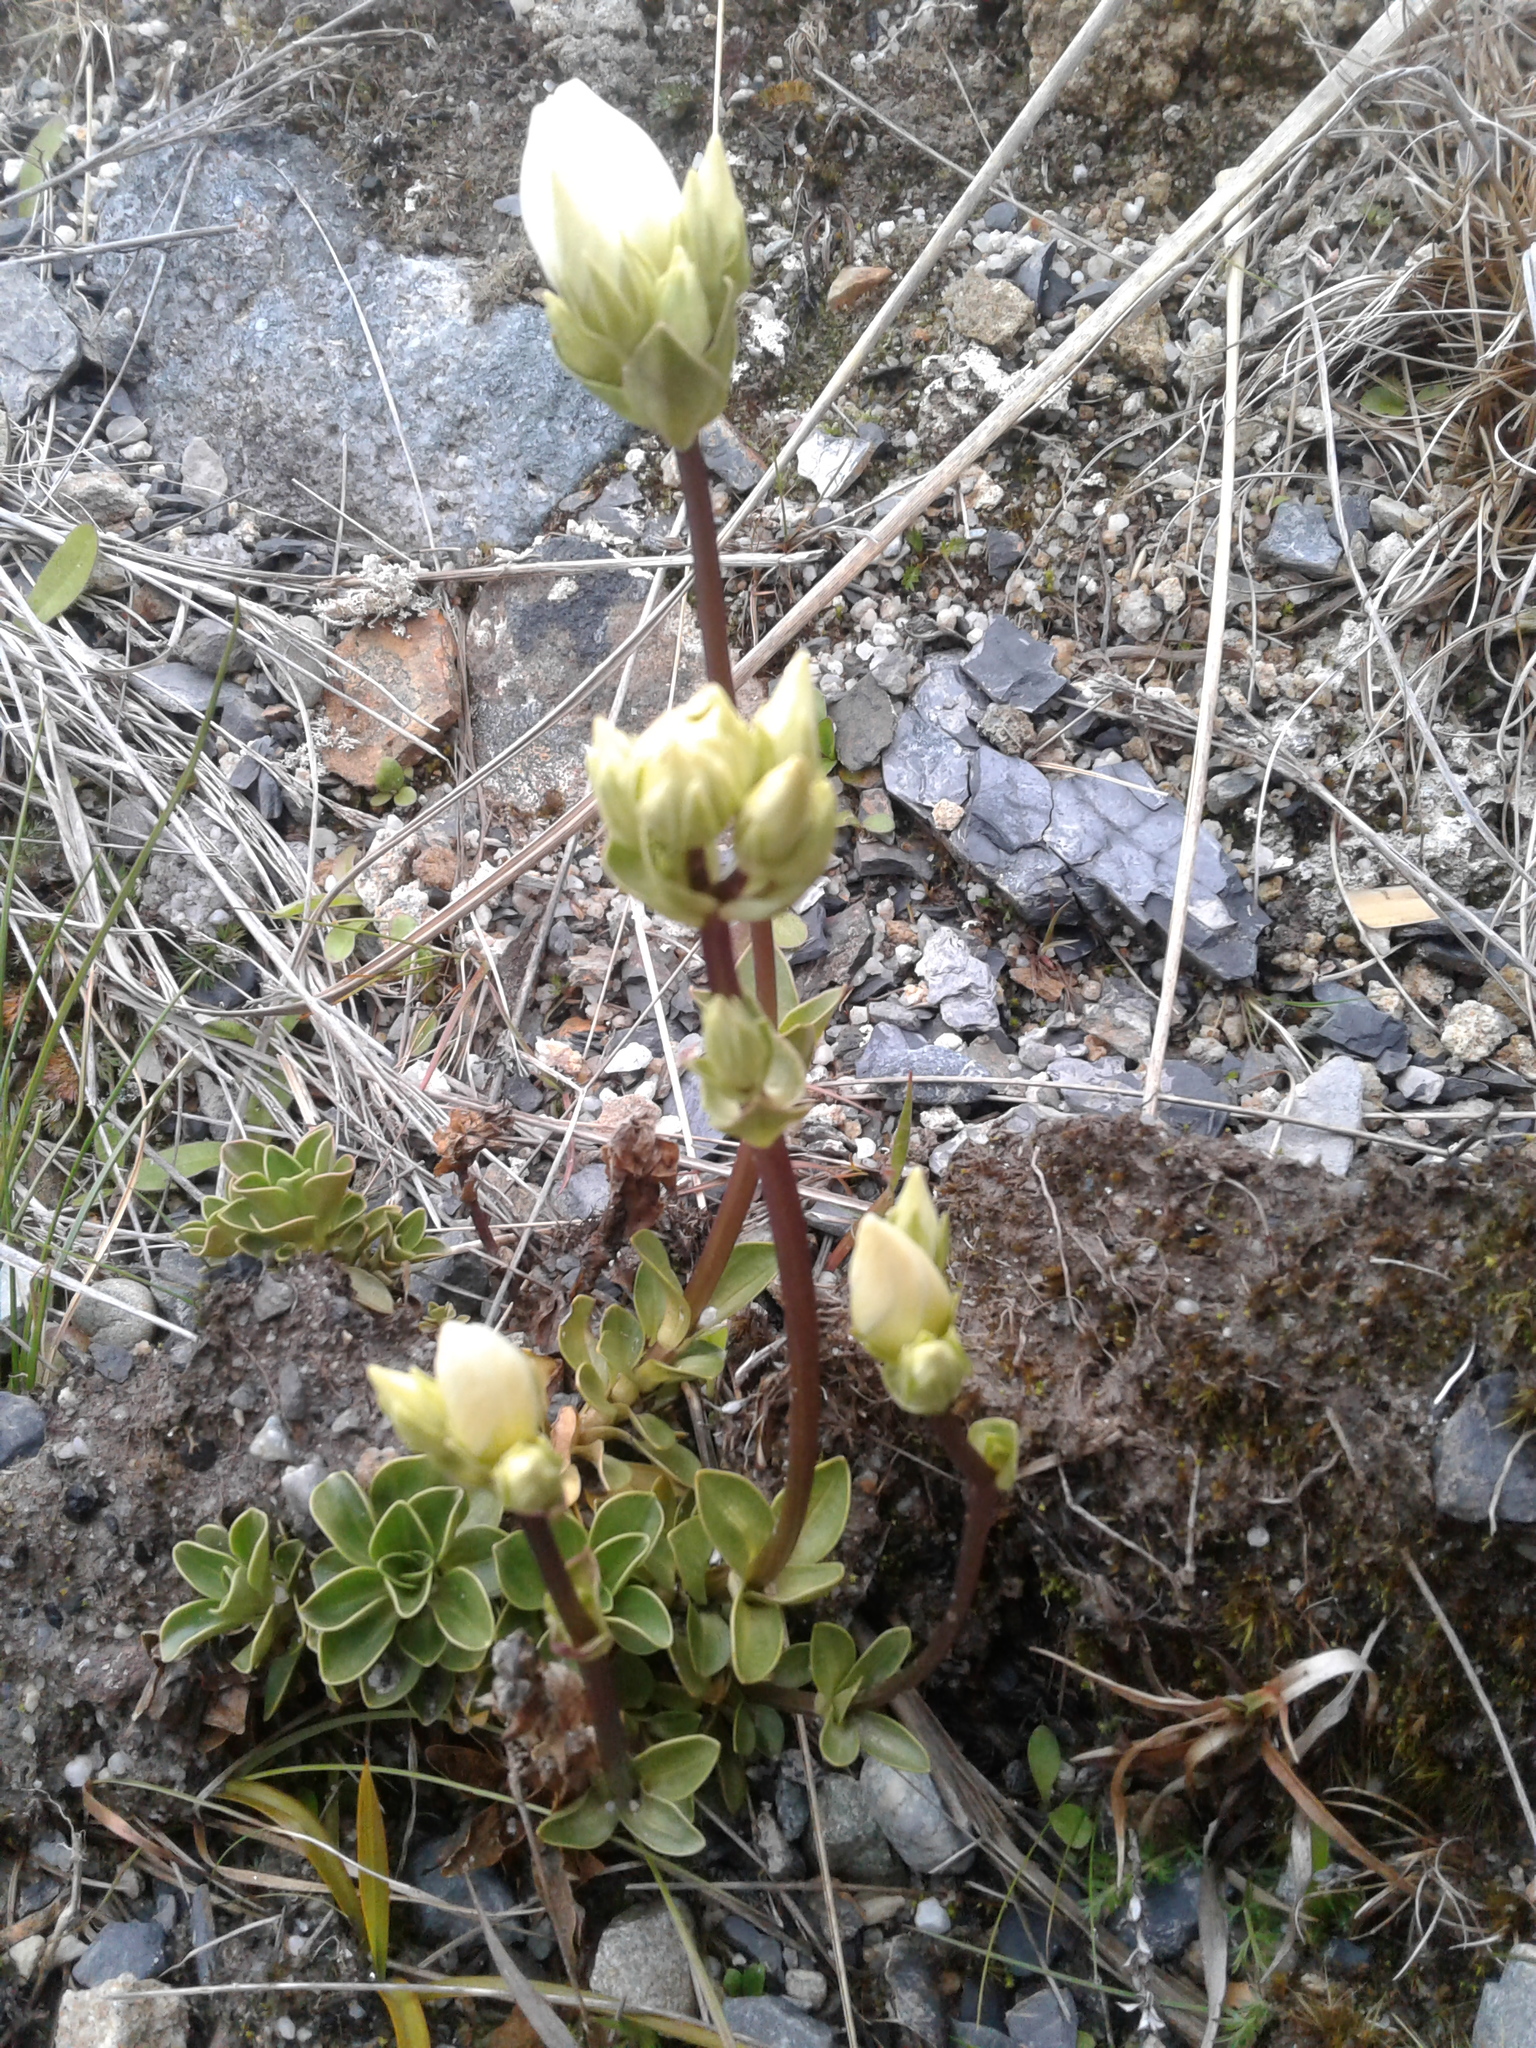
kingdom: Plantae
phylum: Tracheophyta
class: Magnoliopsida
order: Gentianales
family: Gentianaceae
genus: Gentianella
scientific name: Gentianella impressinervia
